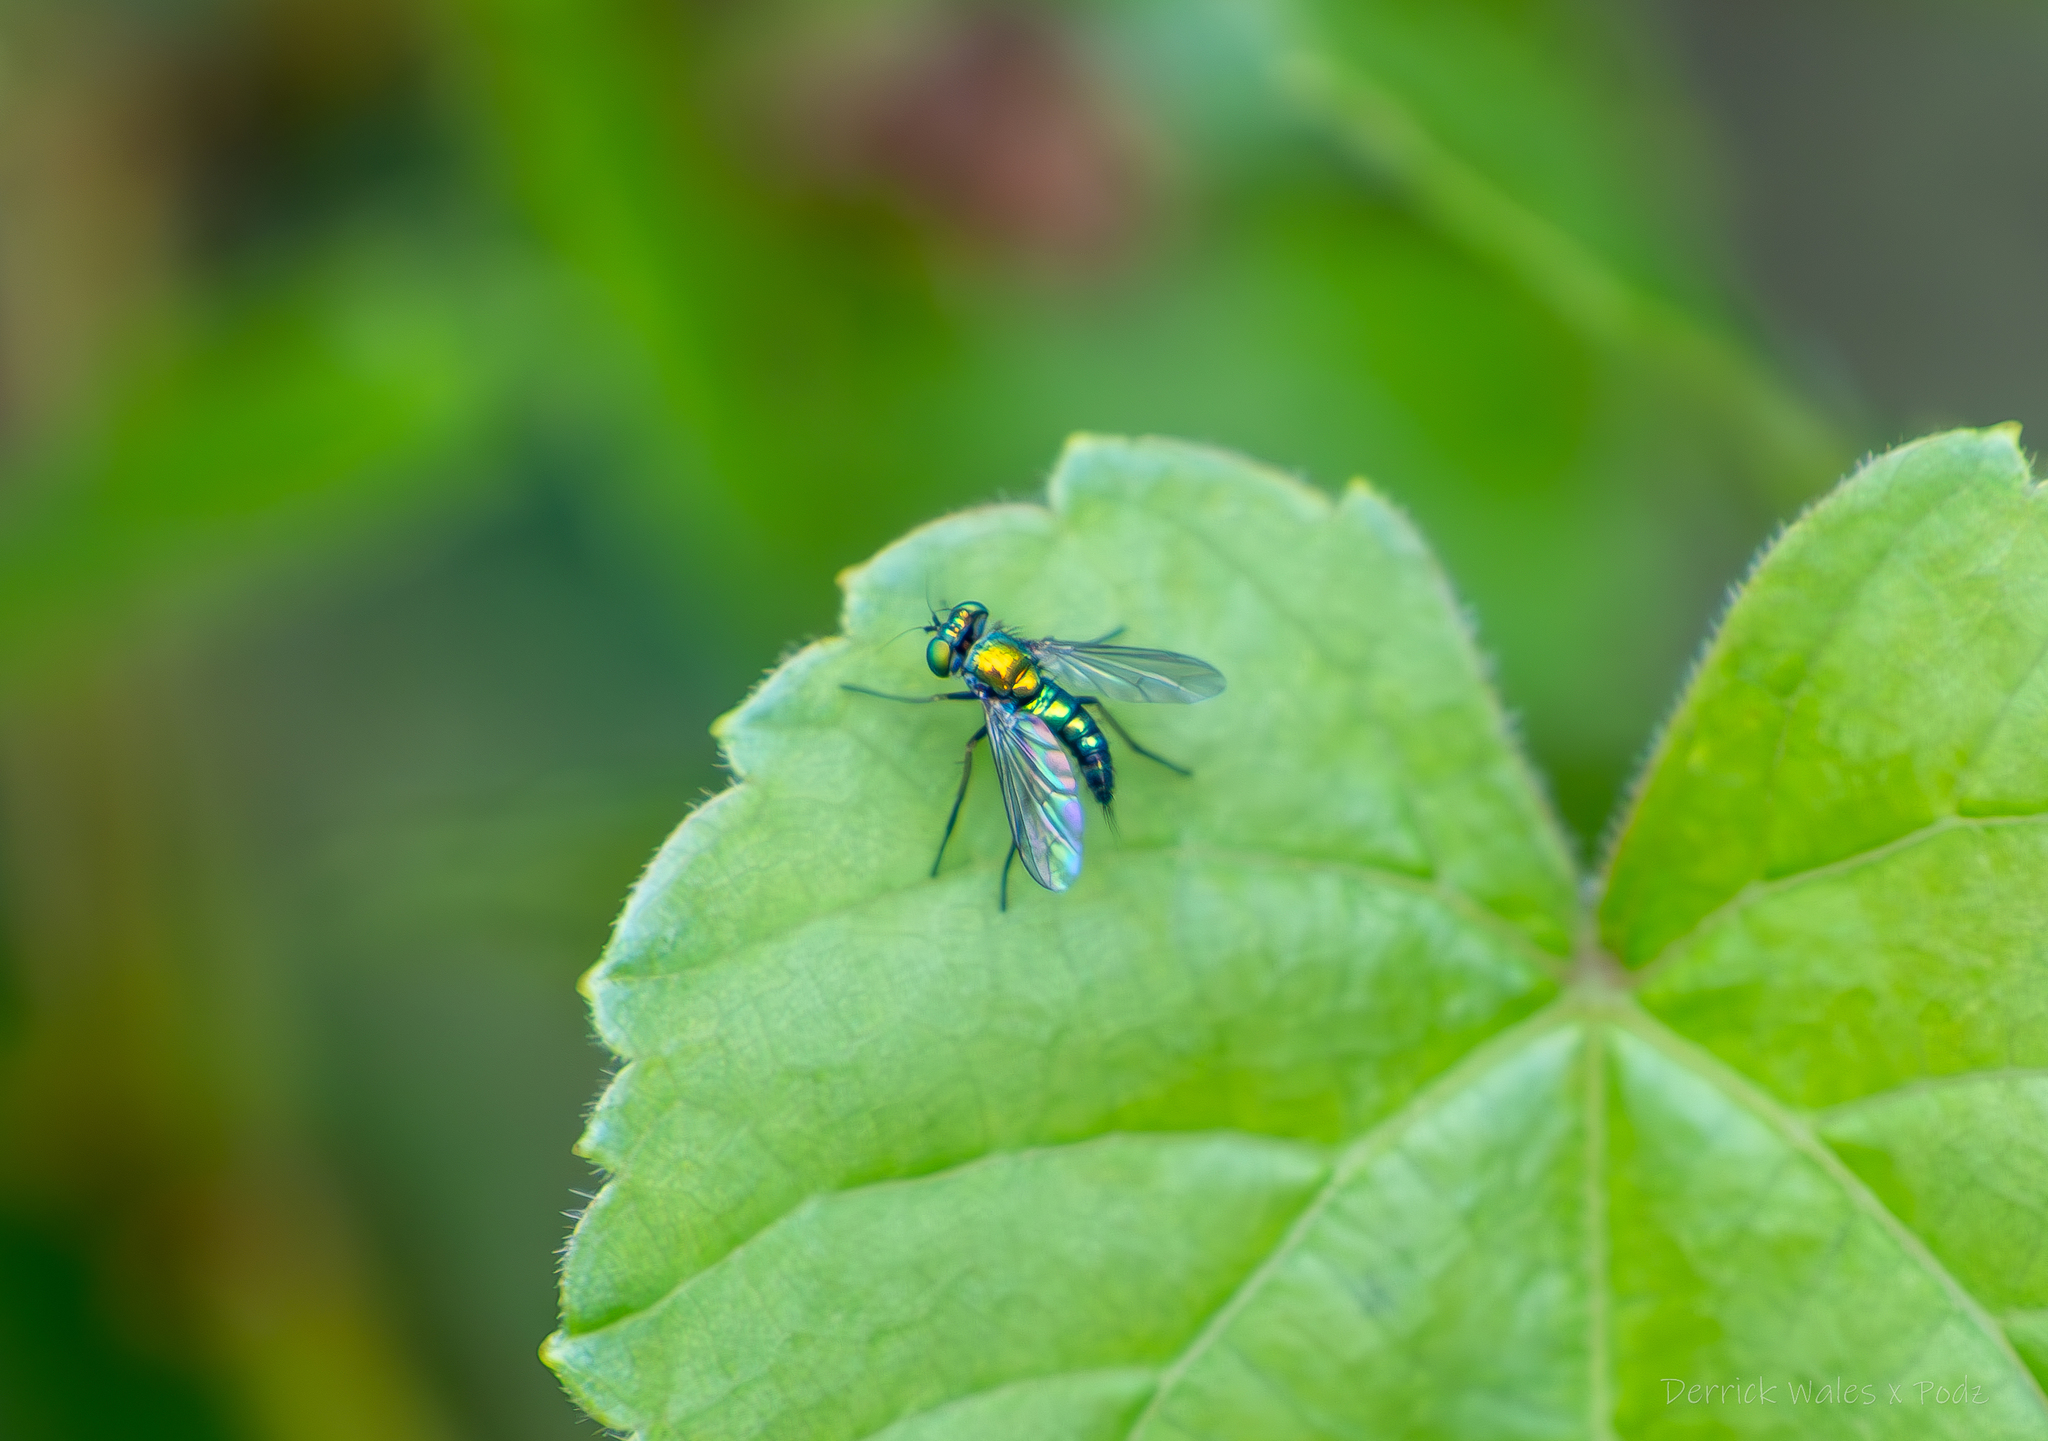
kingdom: Animalia
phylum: Arthropoda
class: Insecta
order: Diptera
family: Dolichopodidae
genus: Condylostylus
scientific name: Condylostylus
